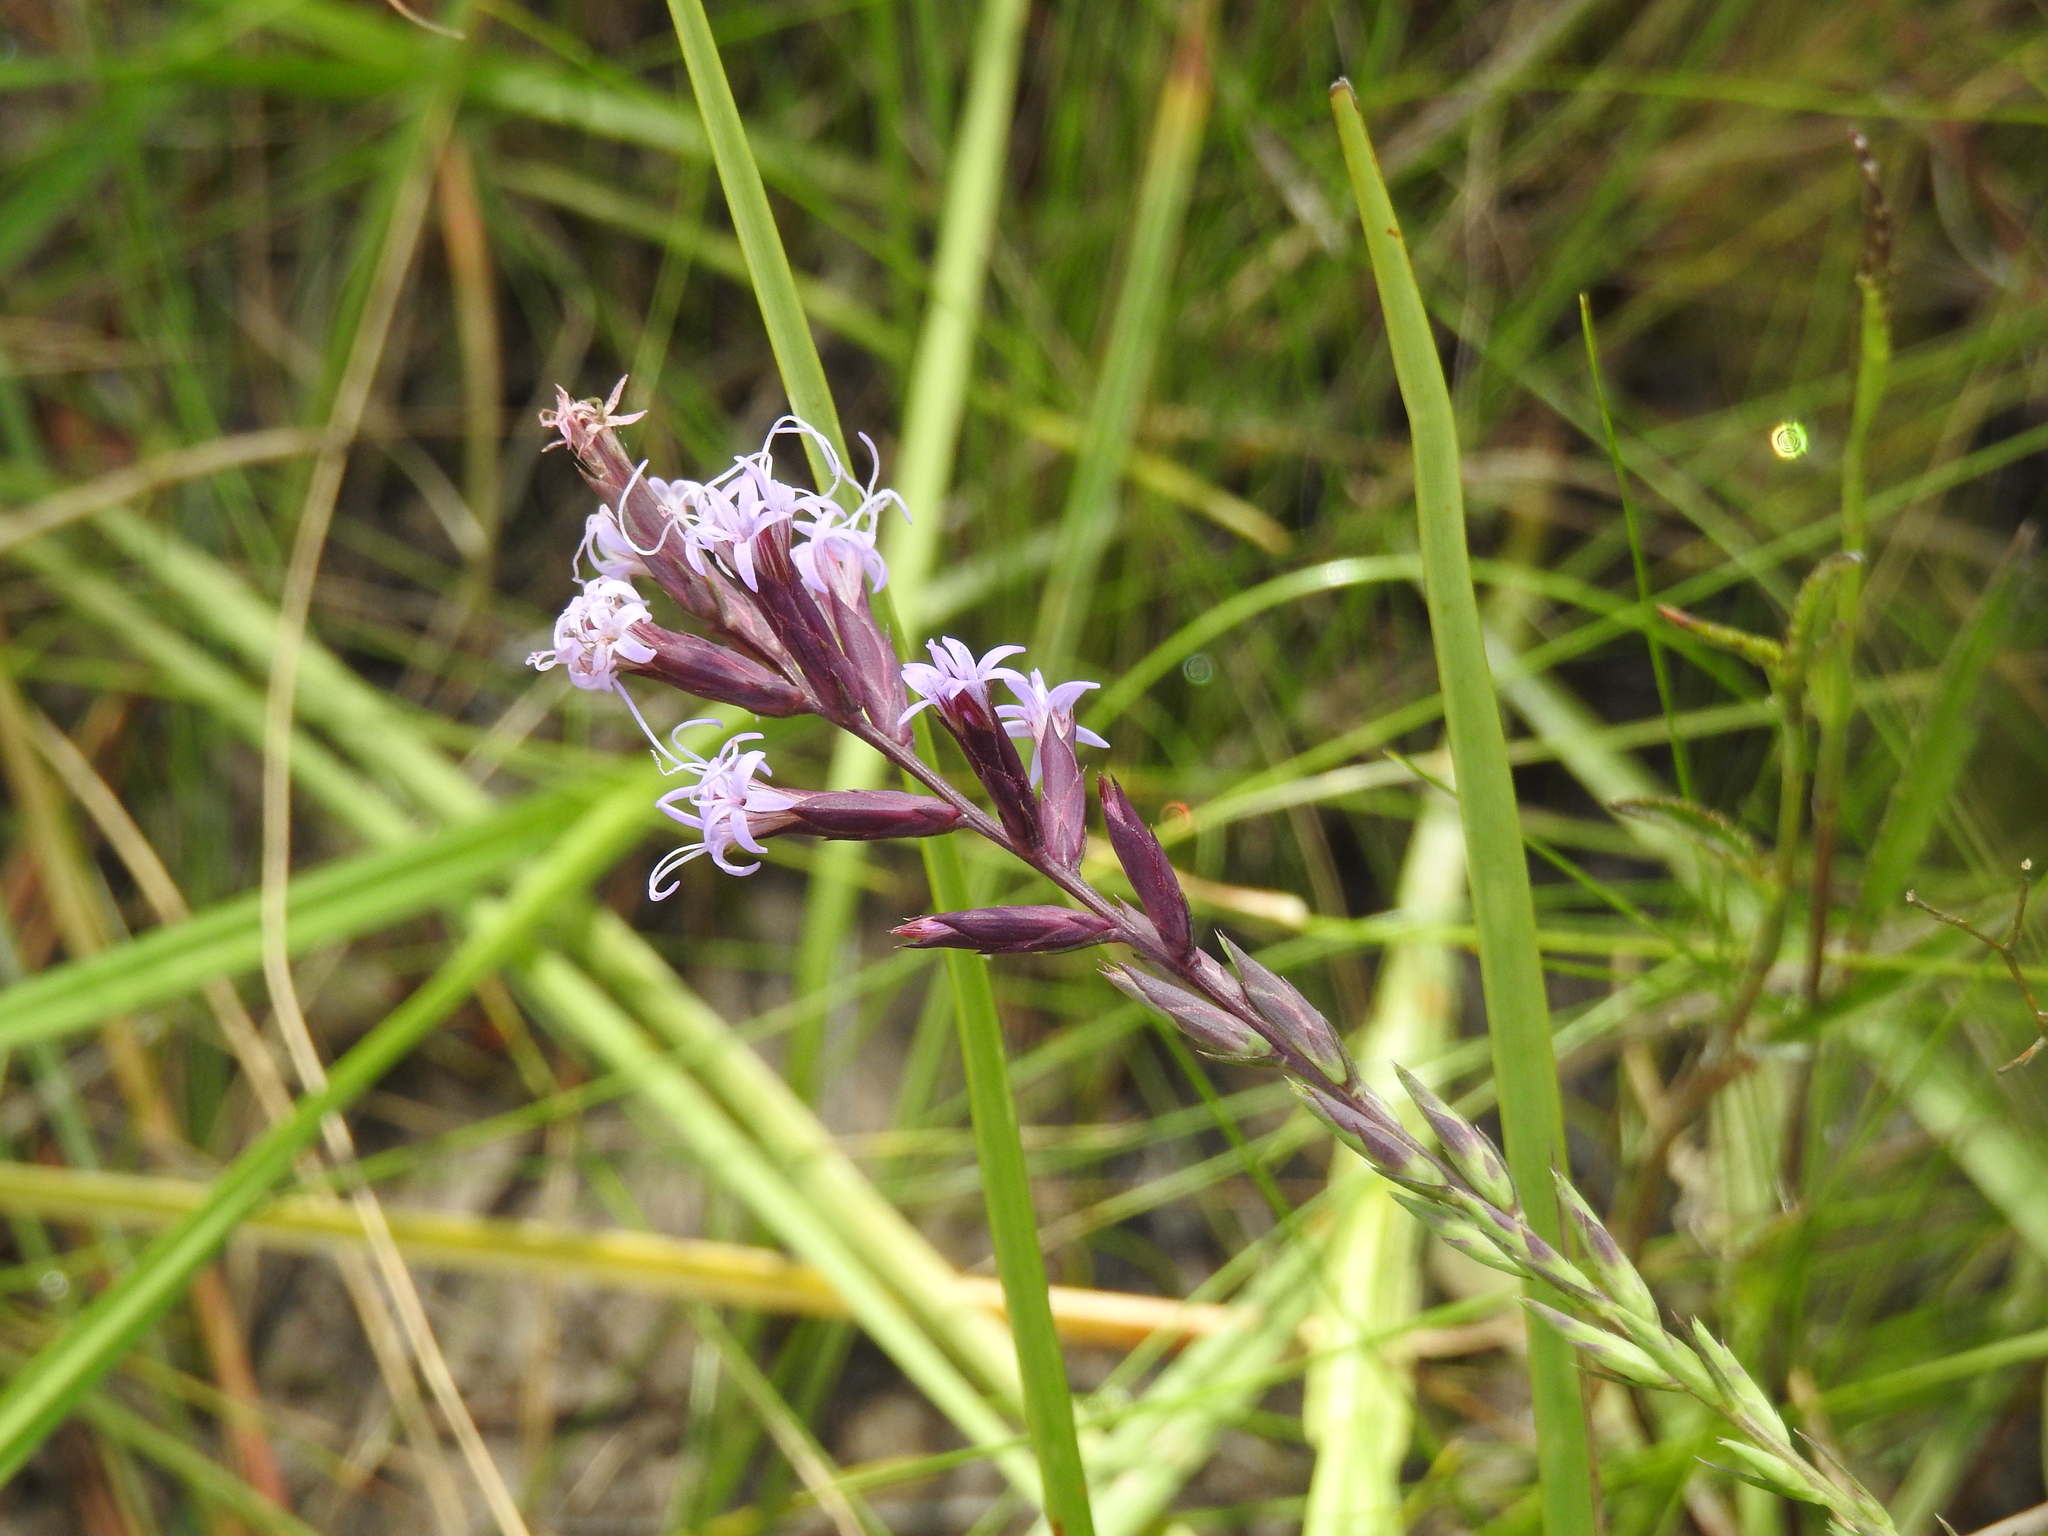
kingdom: Plantae
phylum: Tracheophyta
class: Magnoliopsida
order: Asterales
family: Asteraceae
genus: Liatris
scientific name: Liatris acidota
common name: Gulf coast gayfeather
